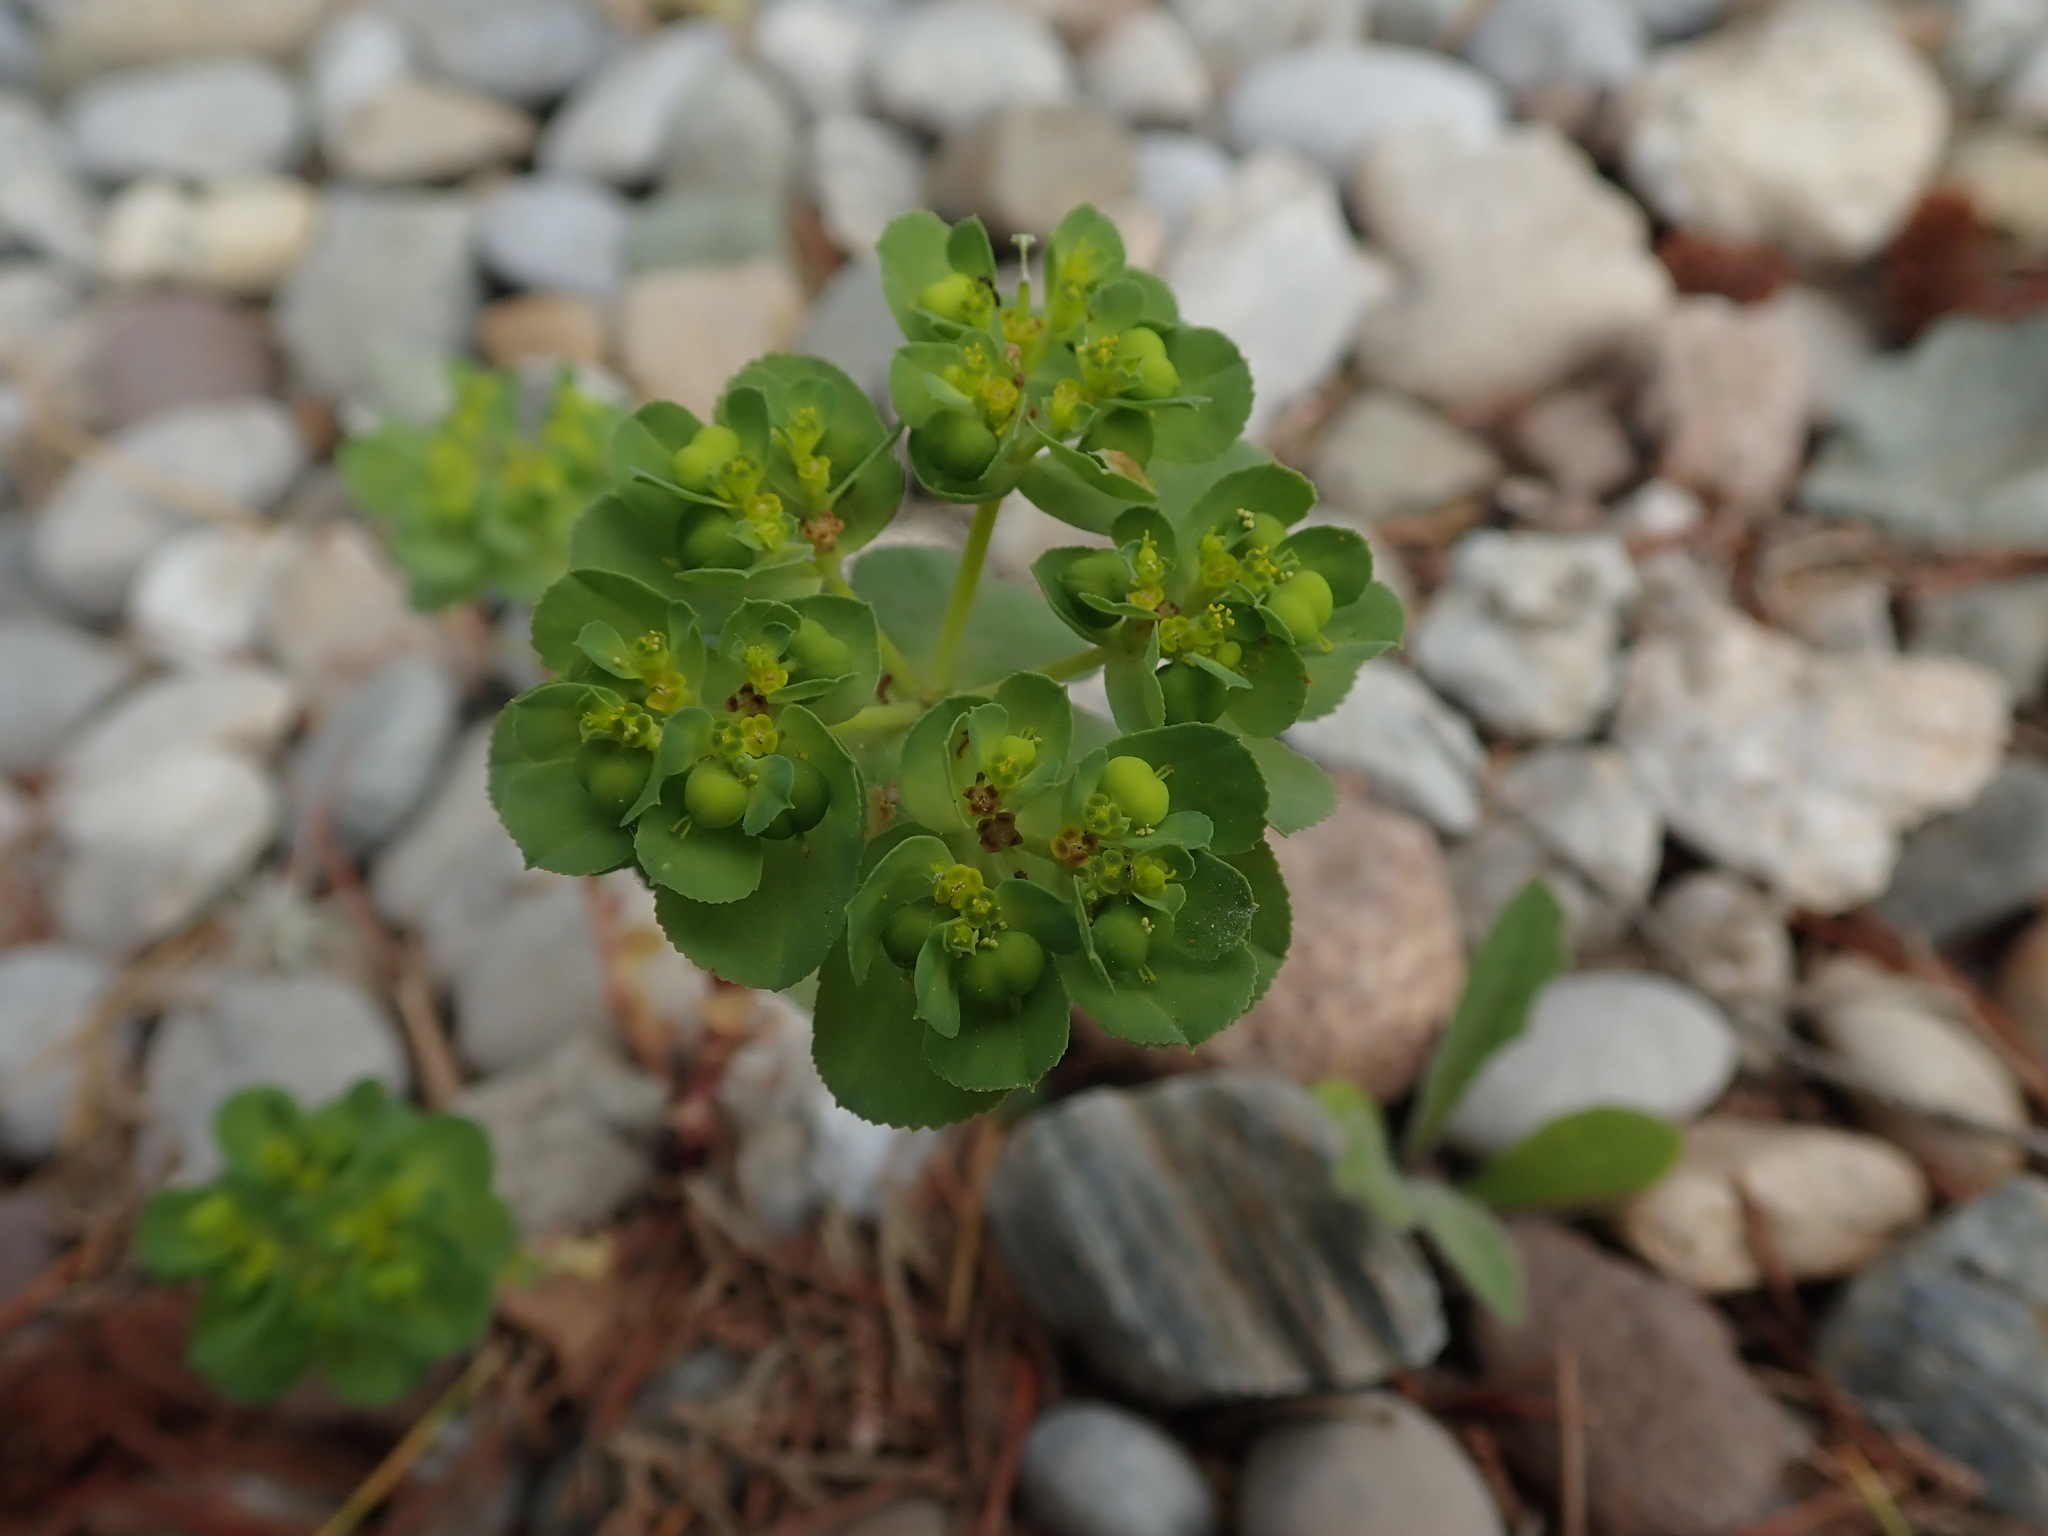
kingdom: Plantae
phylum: Tracheophyta
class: Magnoliopsida
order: Malpighiales
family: Euphorbiaceae
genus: Euphorbia
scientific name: Euphorbia helioscopia
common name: Sun spurge
